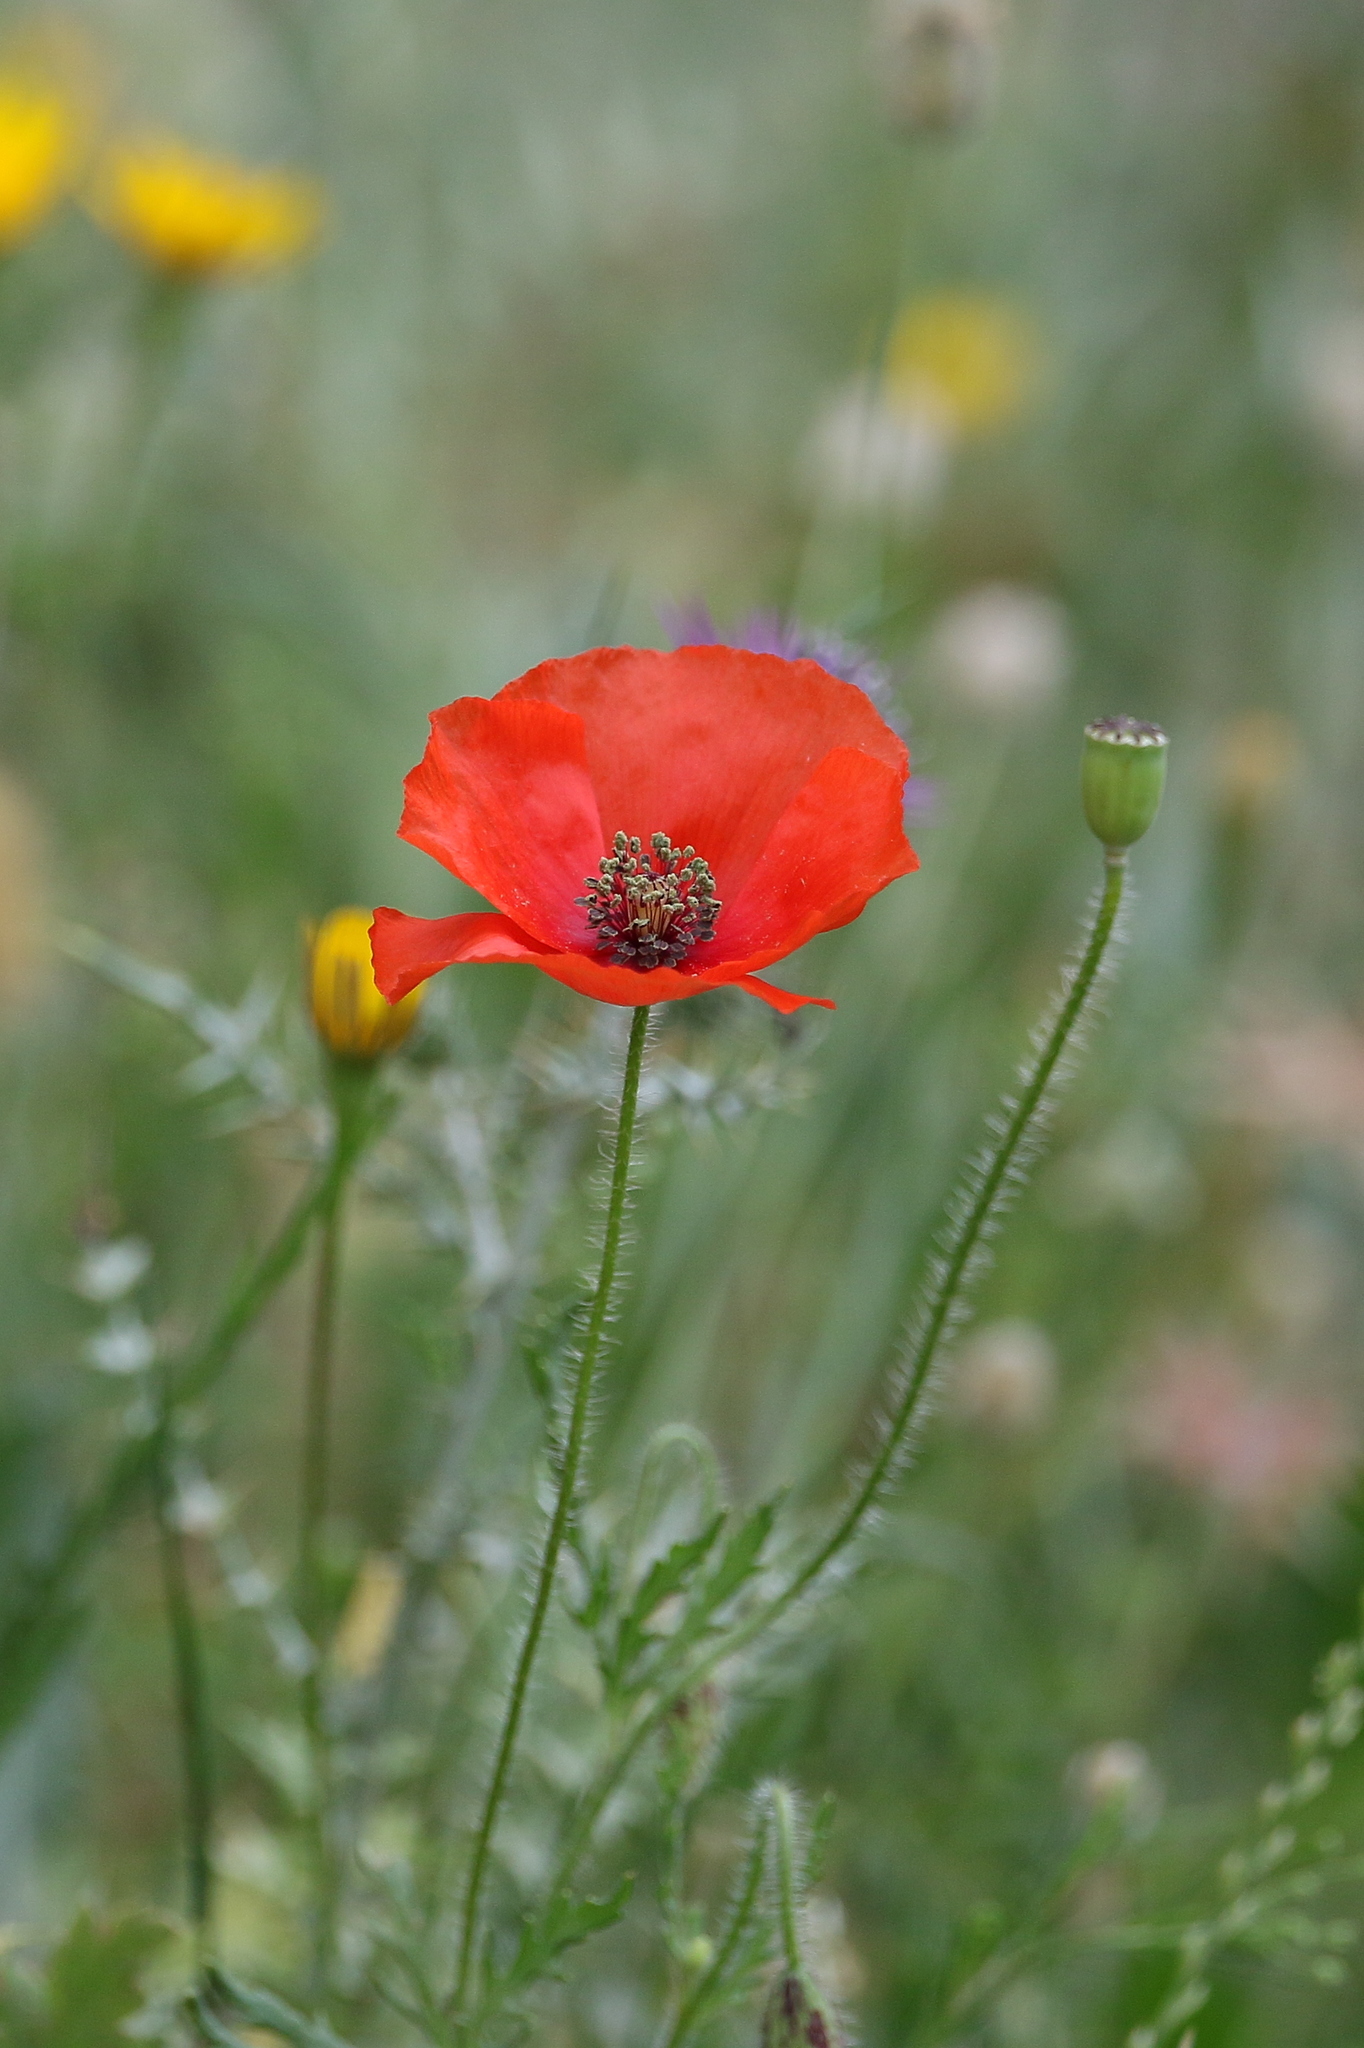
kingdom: Plantae
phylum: Tracheophyta
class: Magnoliopsida
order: Ranunculales
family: Papaveraceae
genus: Papaver
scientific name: Papaver rhoeas
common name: Corn poppy
